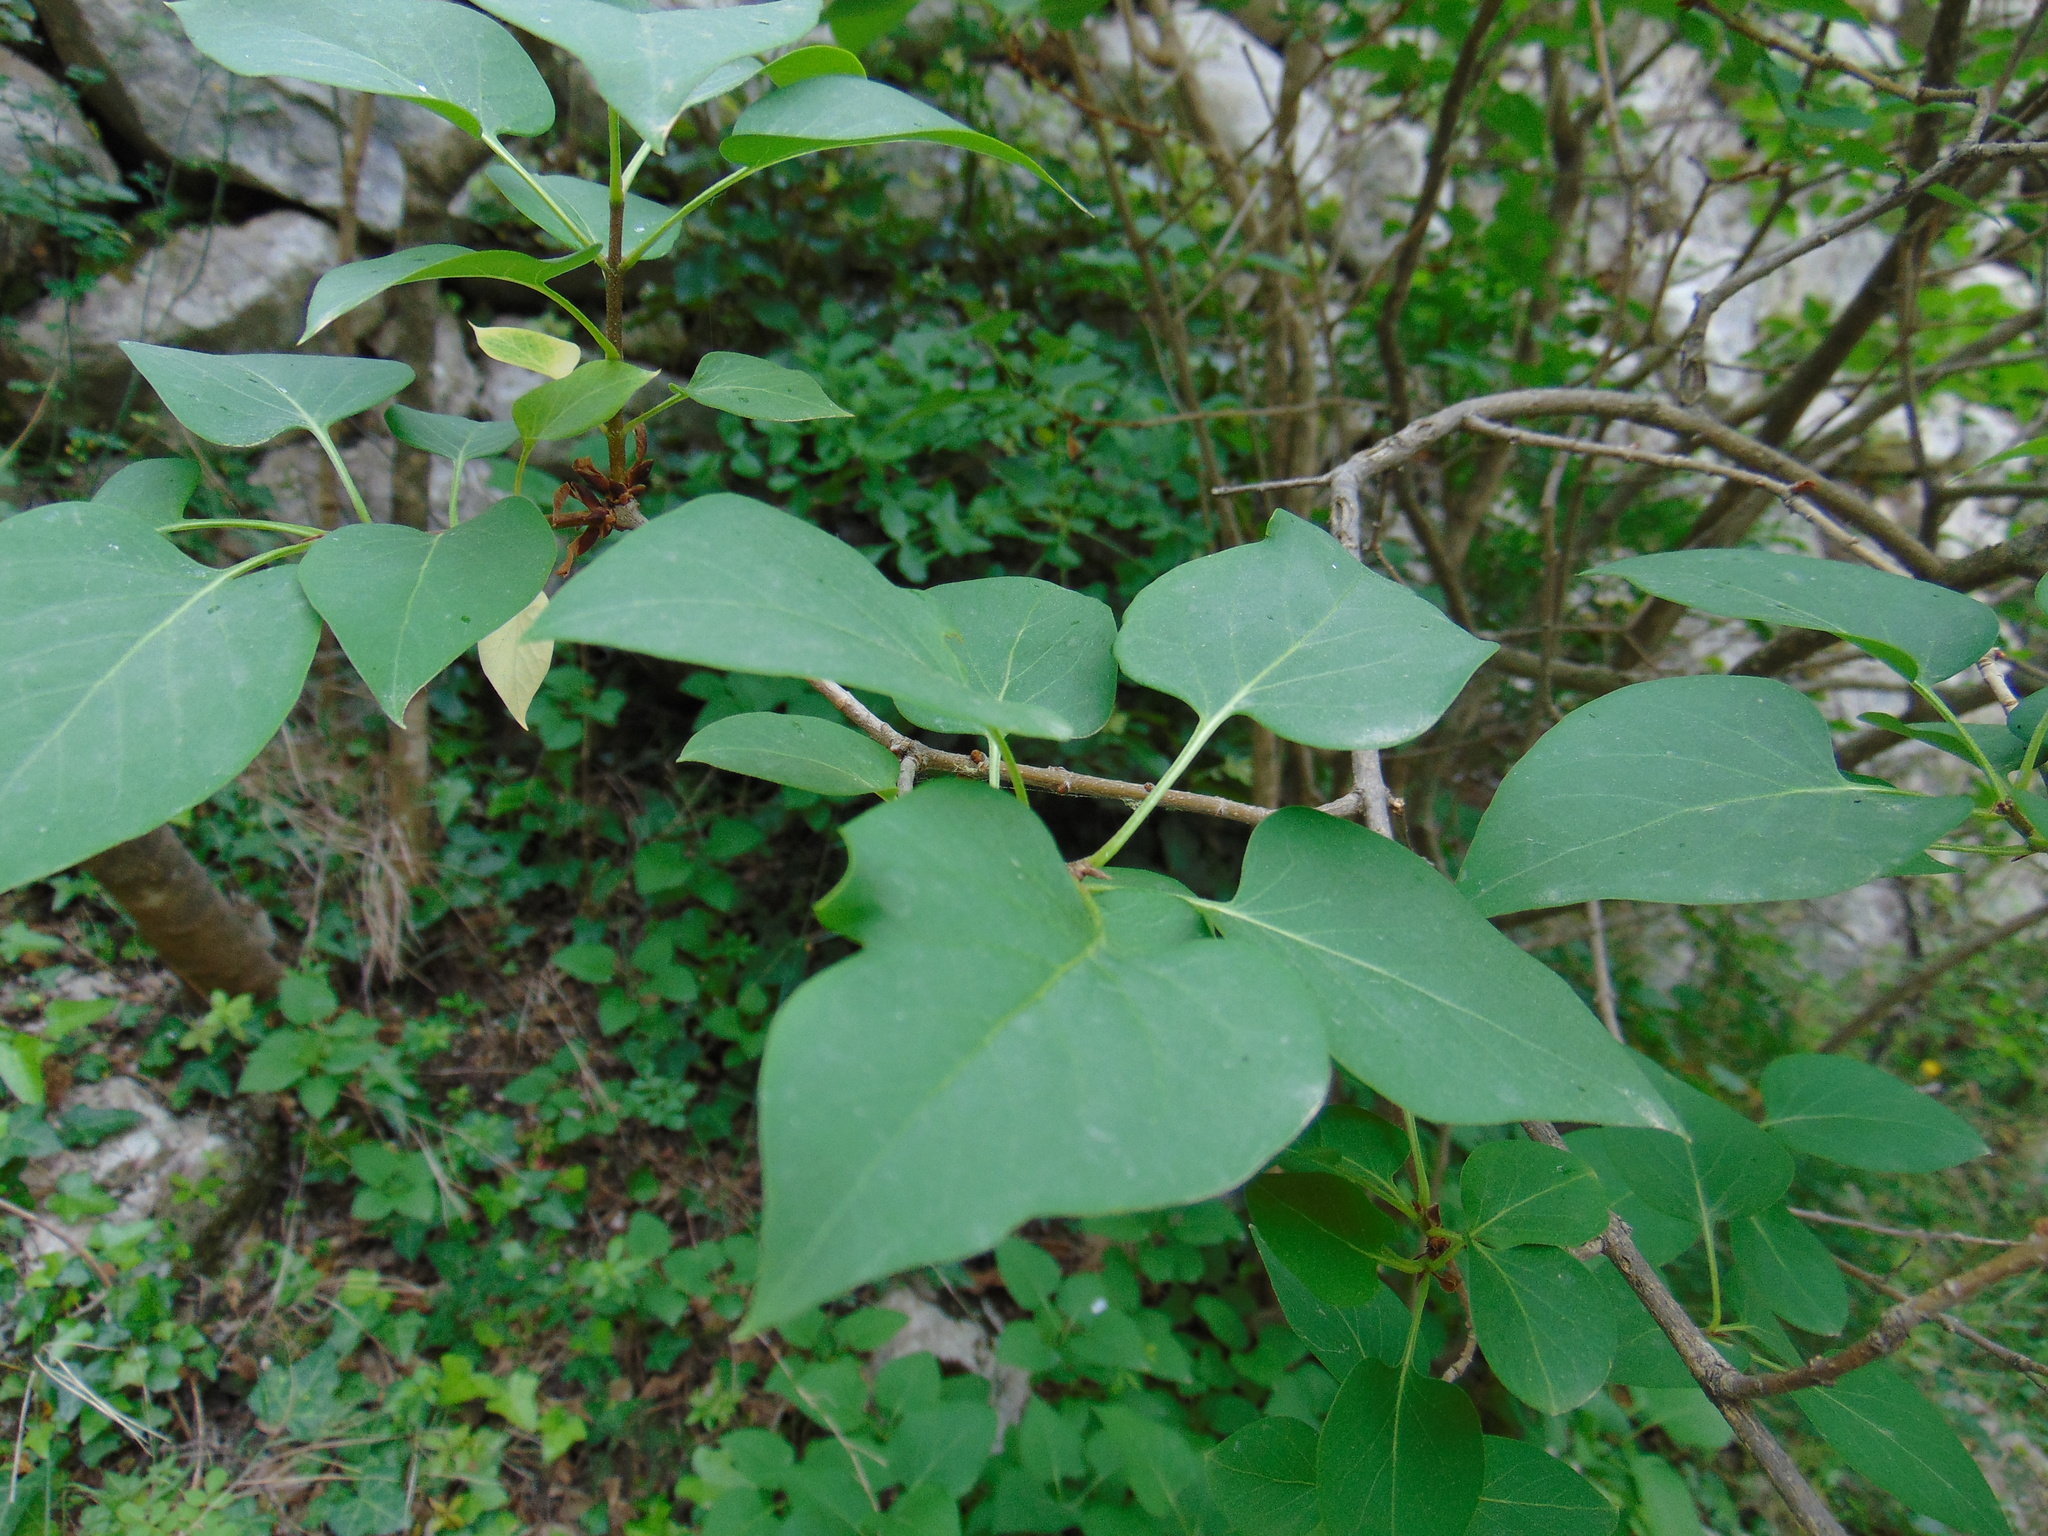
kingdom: Plantae
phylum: Tracheophyta
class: Magnoliopsida
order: Lamiales
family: Oleaceae
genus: Syringa
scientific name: Syringa vulgaris
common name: Common lilac
